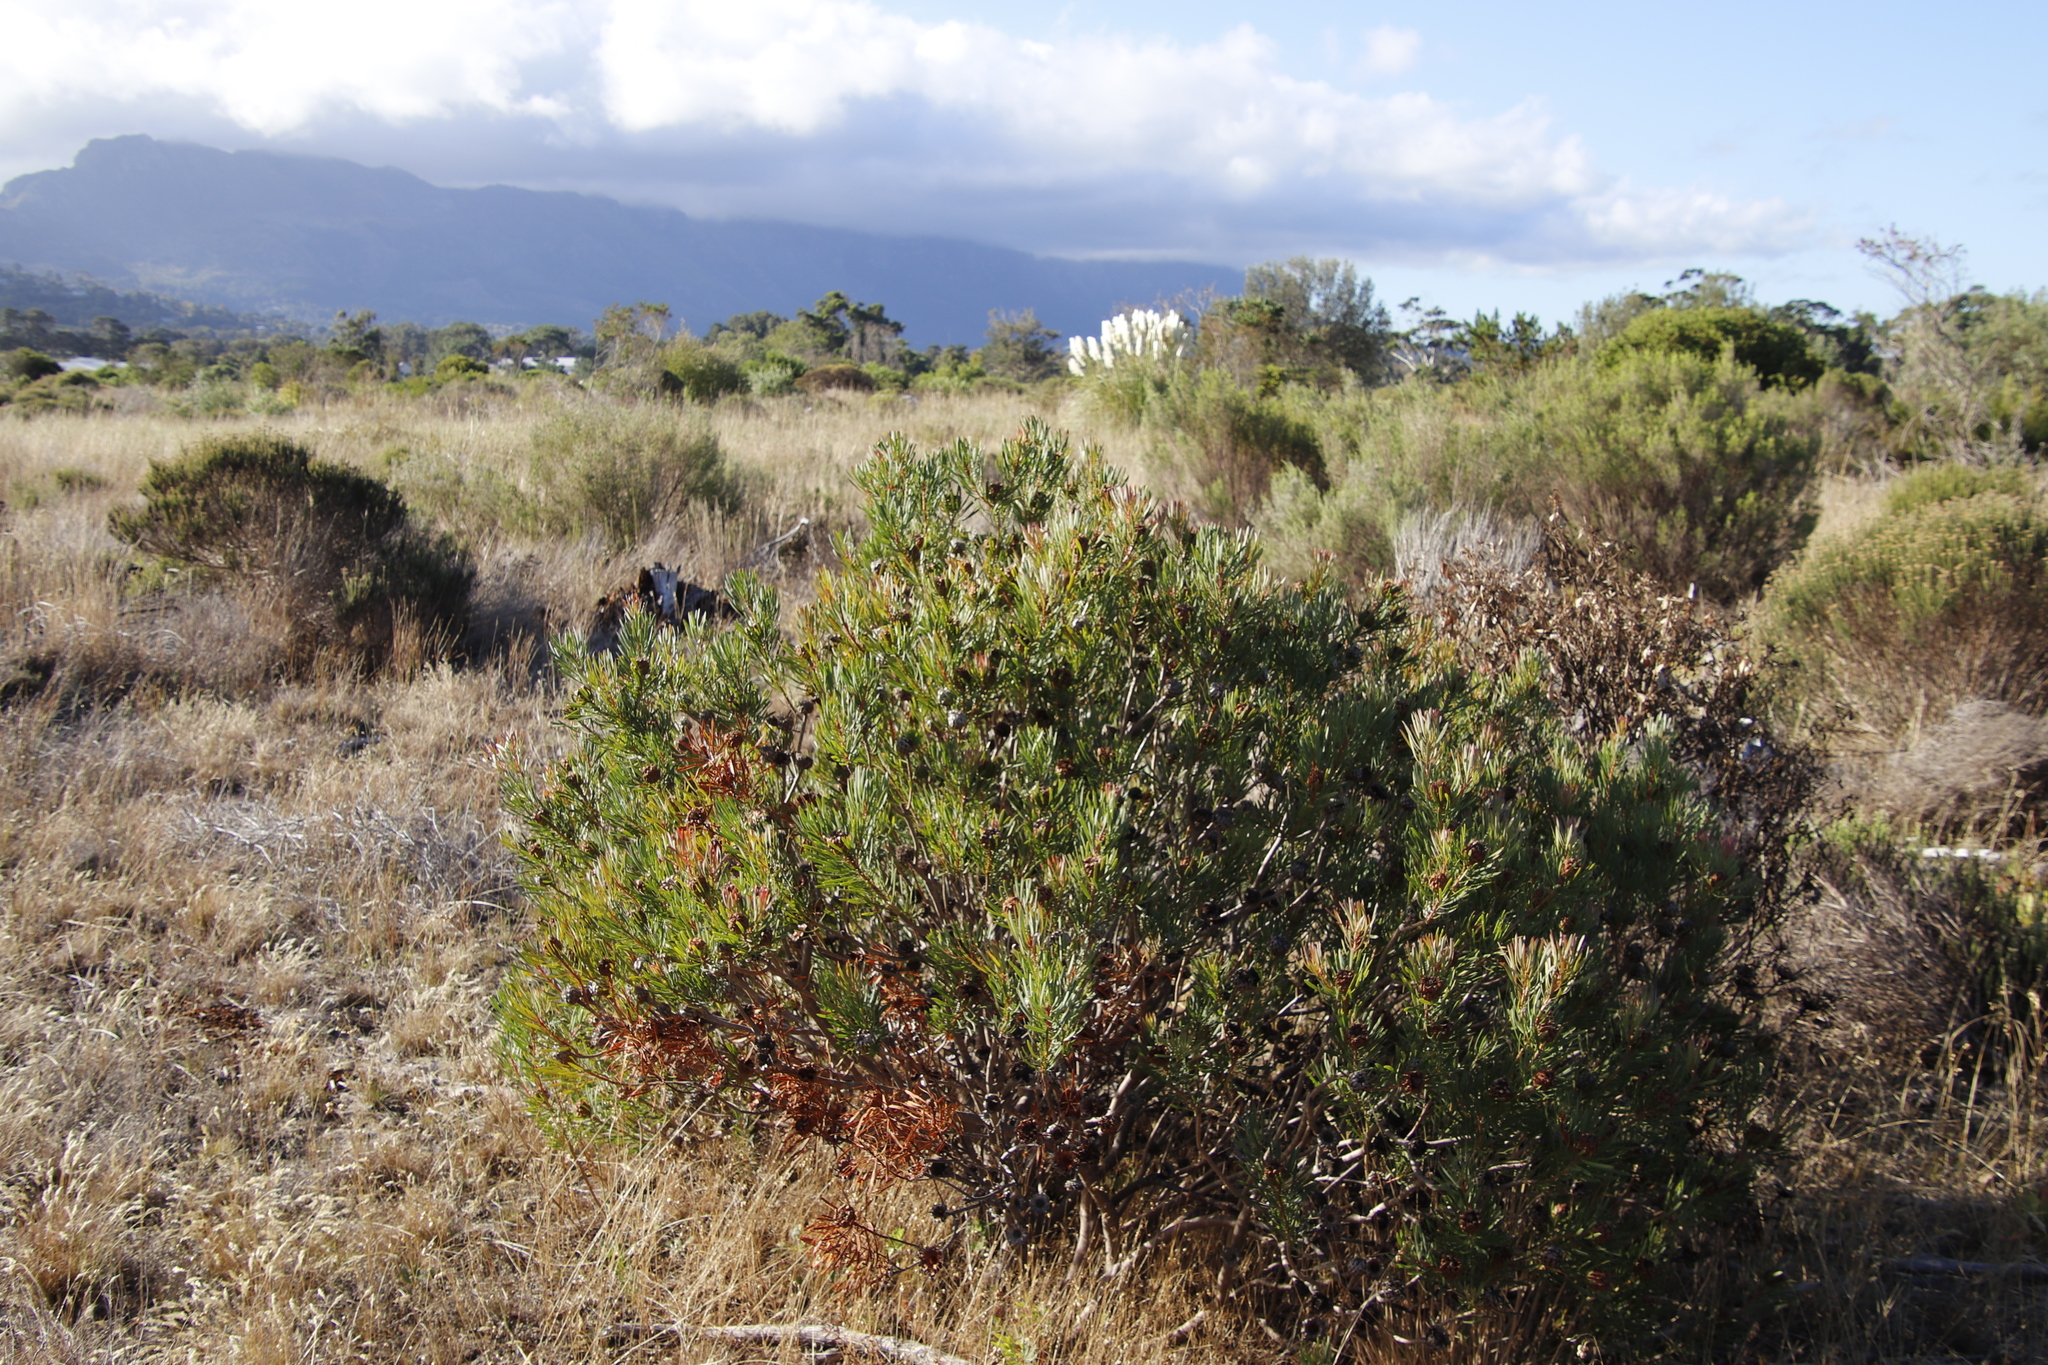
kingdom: Plantae
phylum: Tracheophyta
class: Magnoliopsida
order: Proteales
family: Proteaceae
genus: Protea
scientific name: Protea scolymocephala
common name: Thistle sugarbush
